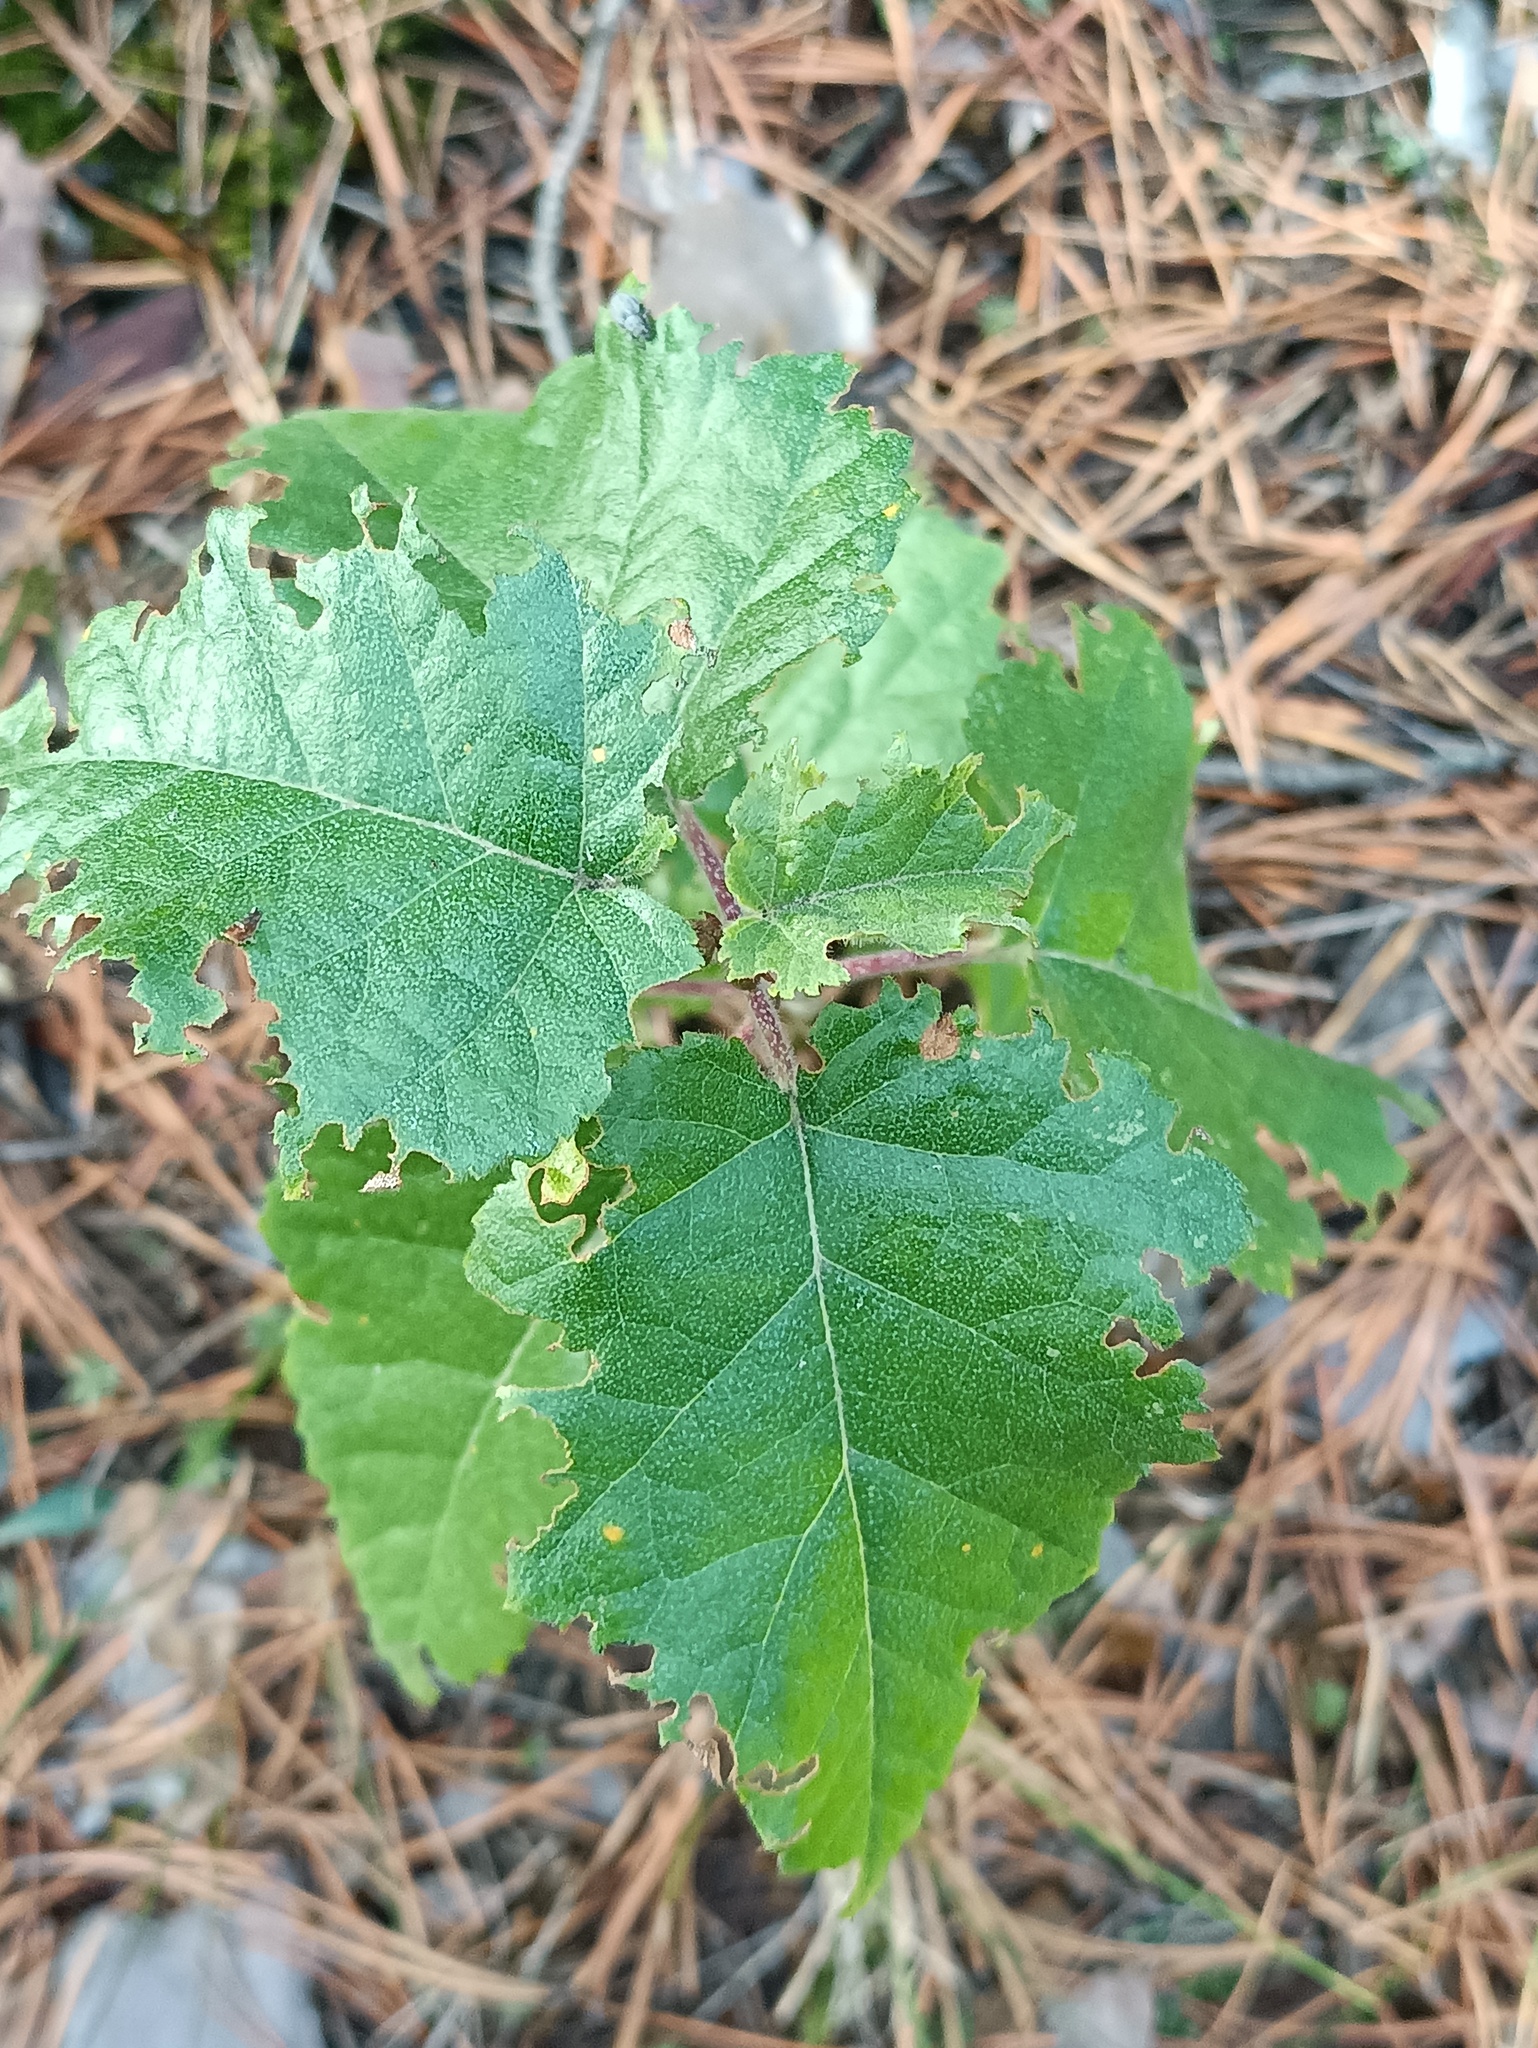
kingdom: Plantae
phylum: Tracheophyta
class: Magnoliopsida
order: Fagales
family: Betulaceae
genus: Betula
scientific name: Betula pubescens
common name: Downy birch
